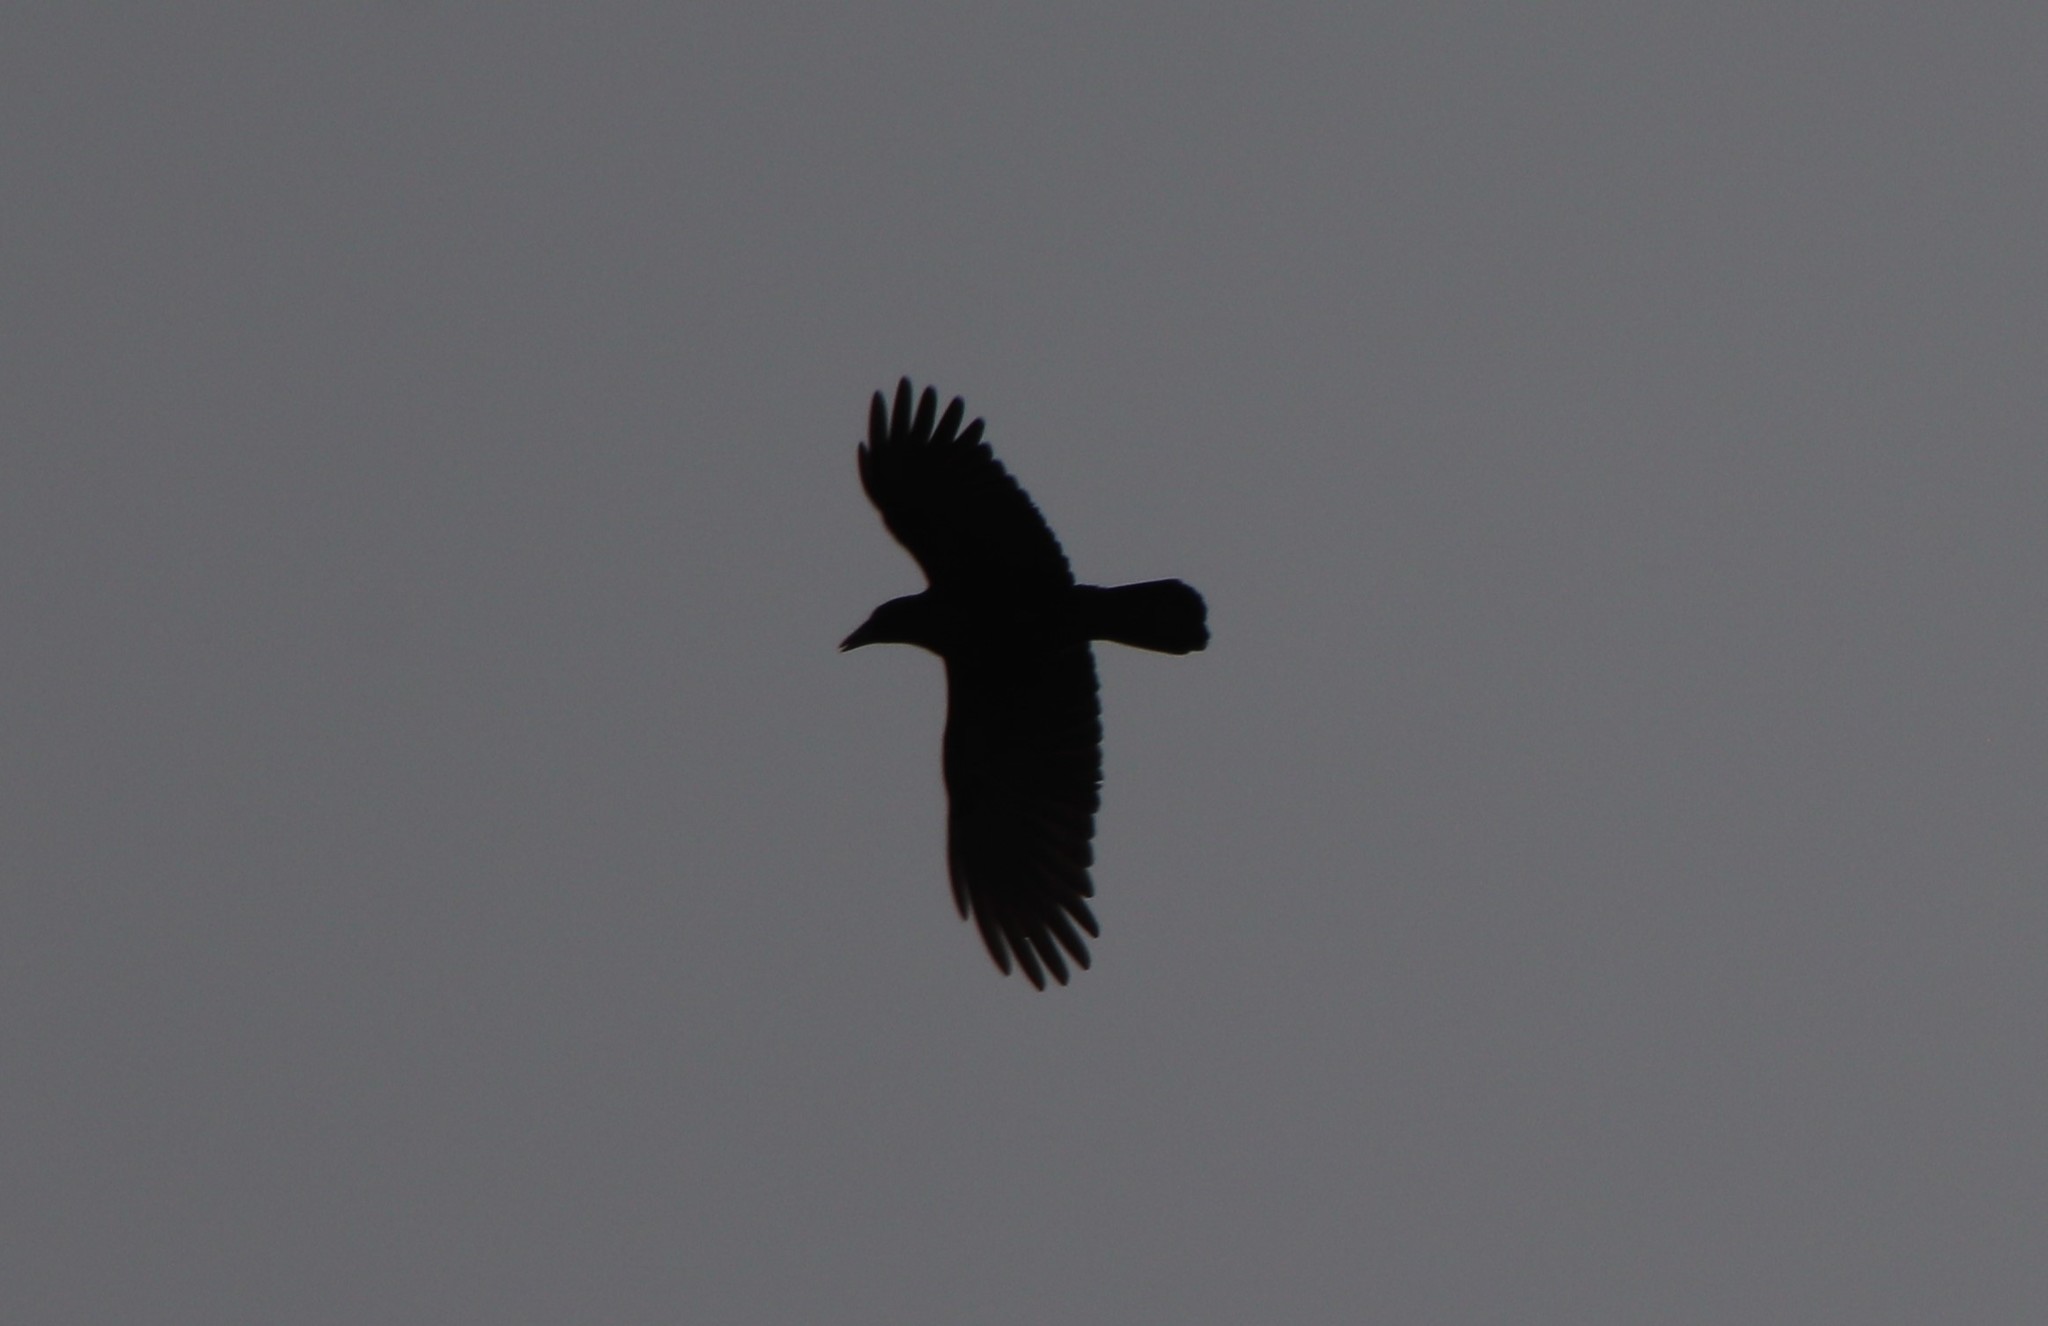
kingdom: Animalia
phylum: Chordata
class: Aves
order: Passeriformes
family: Corvidae
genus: Corvus
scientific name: Corvus brachyrhynchos
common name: American crow
